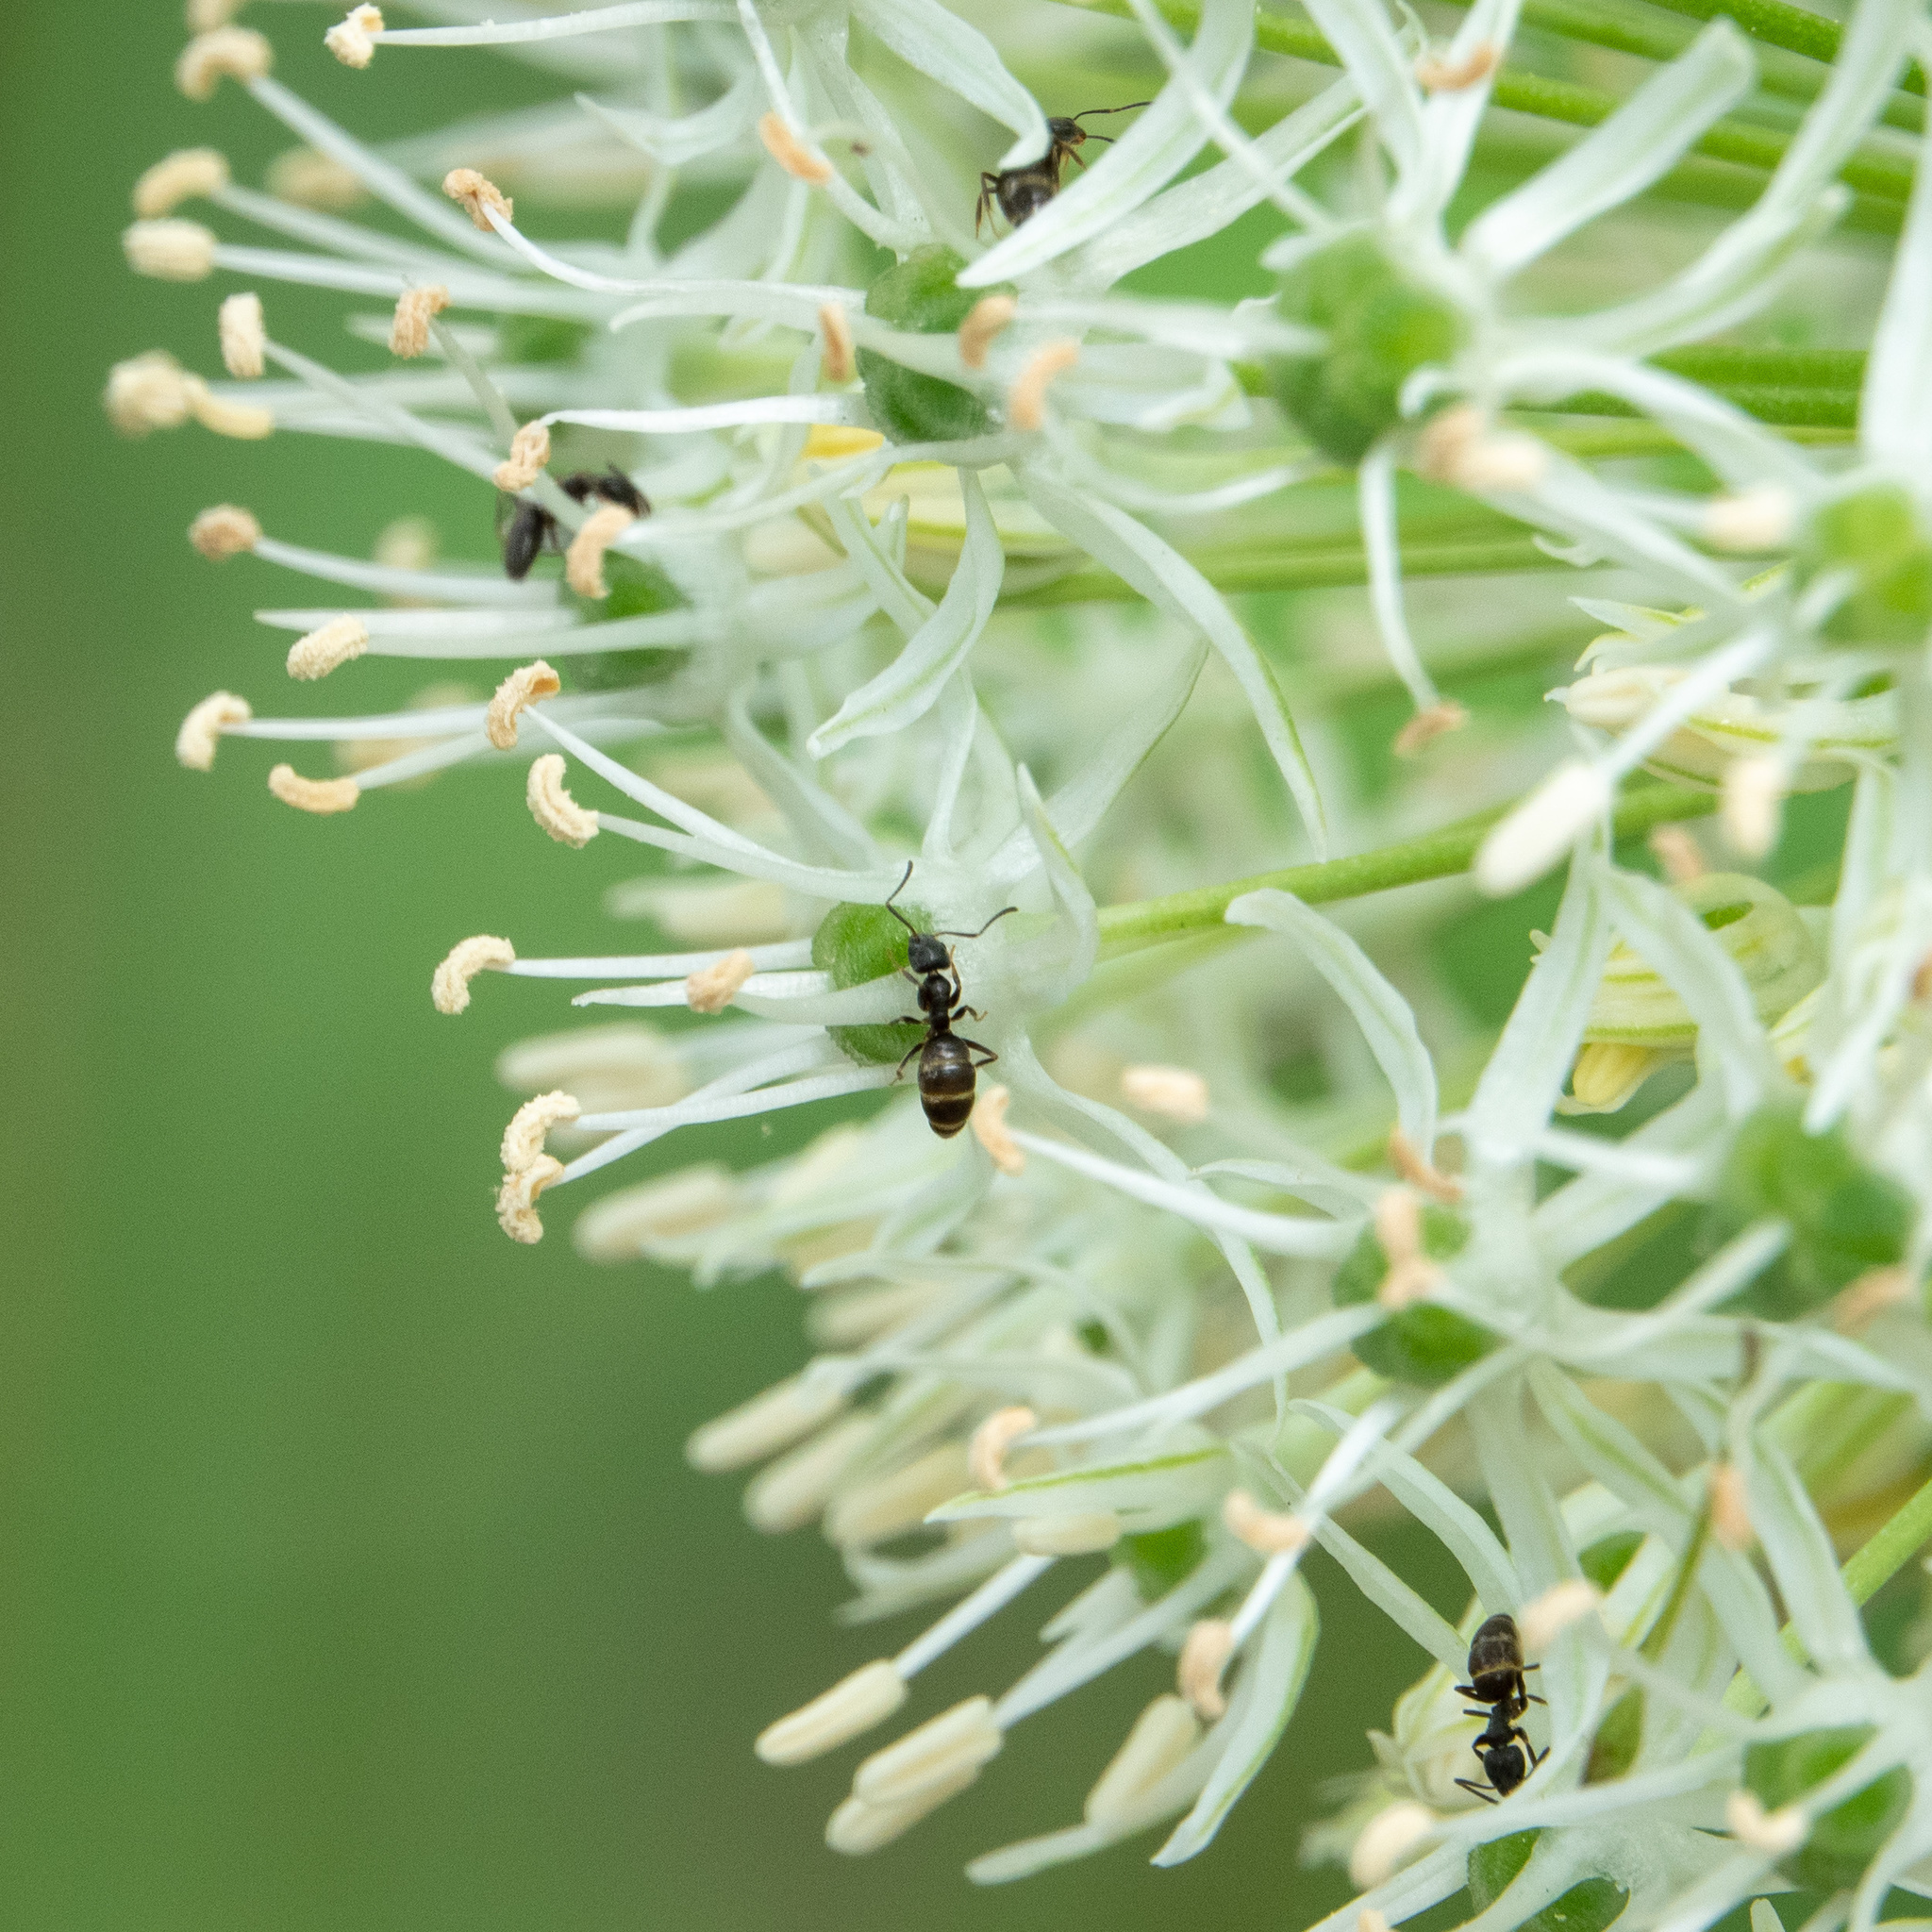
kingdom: Animalia
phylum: Arthropoda
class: Insecta
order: Hymenoptera
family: Formicidae
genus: Tapinoma
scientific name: Tapinoma sessile
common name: Odorous house ant
